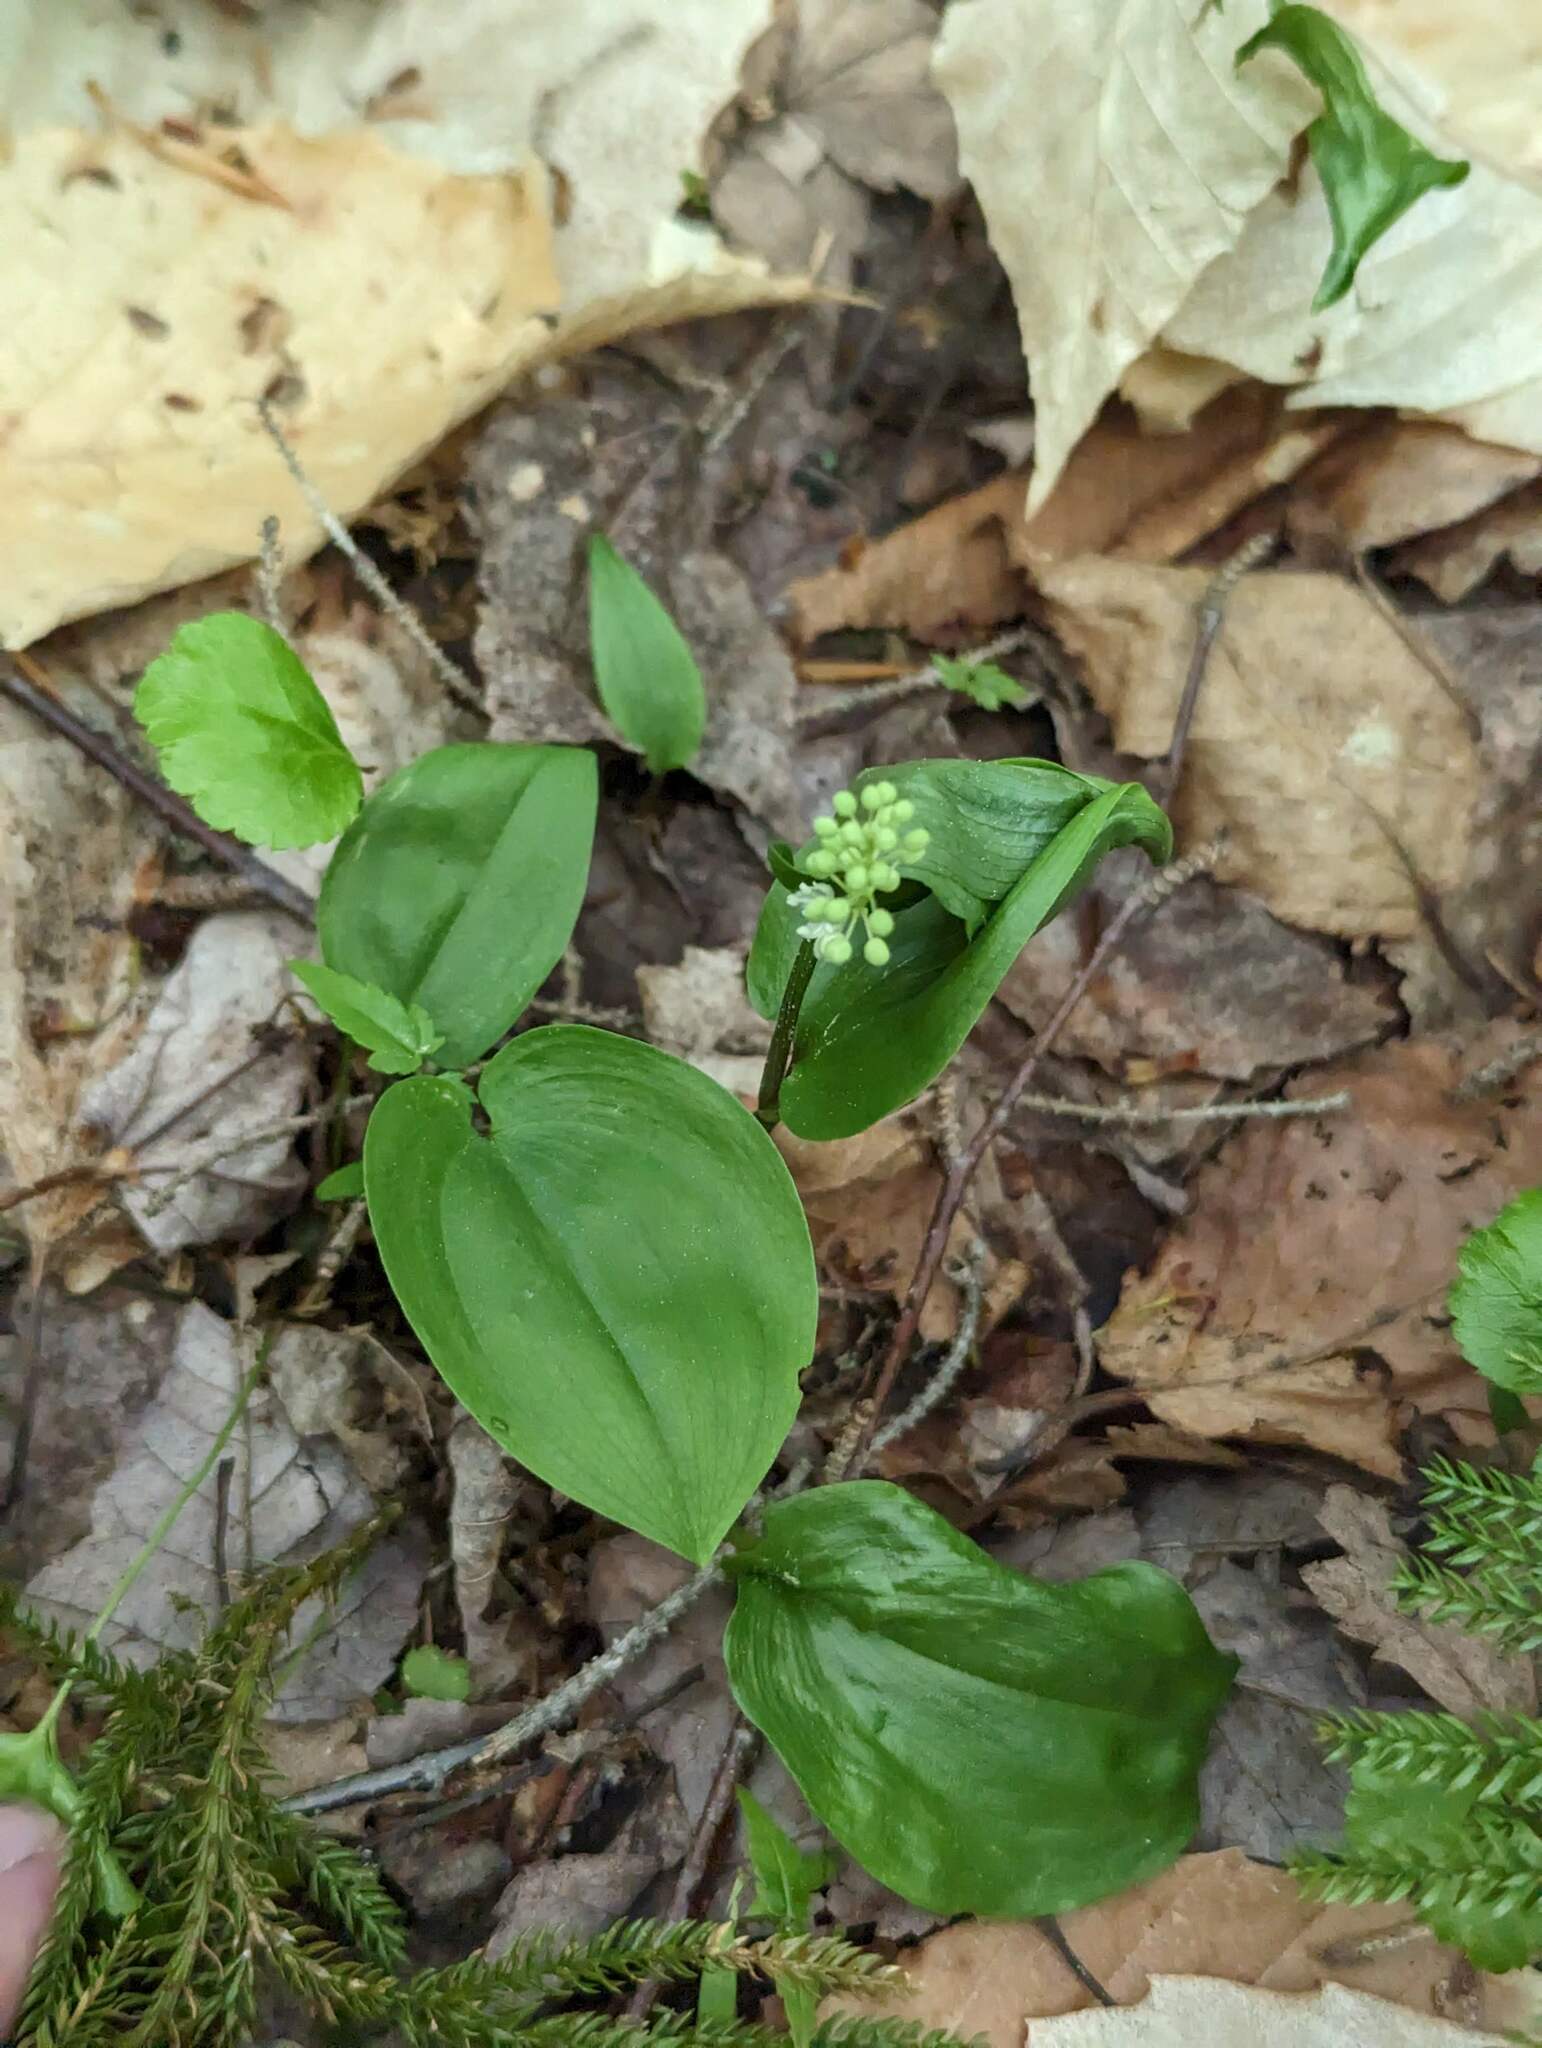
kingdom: Plantae
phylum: Tracheophyta
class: Liliopsida
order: Asparagales
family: Asparagaceae
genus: Maianthemum
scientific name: Maianthemum canadense
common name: False lily-of-the-valley
